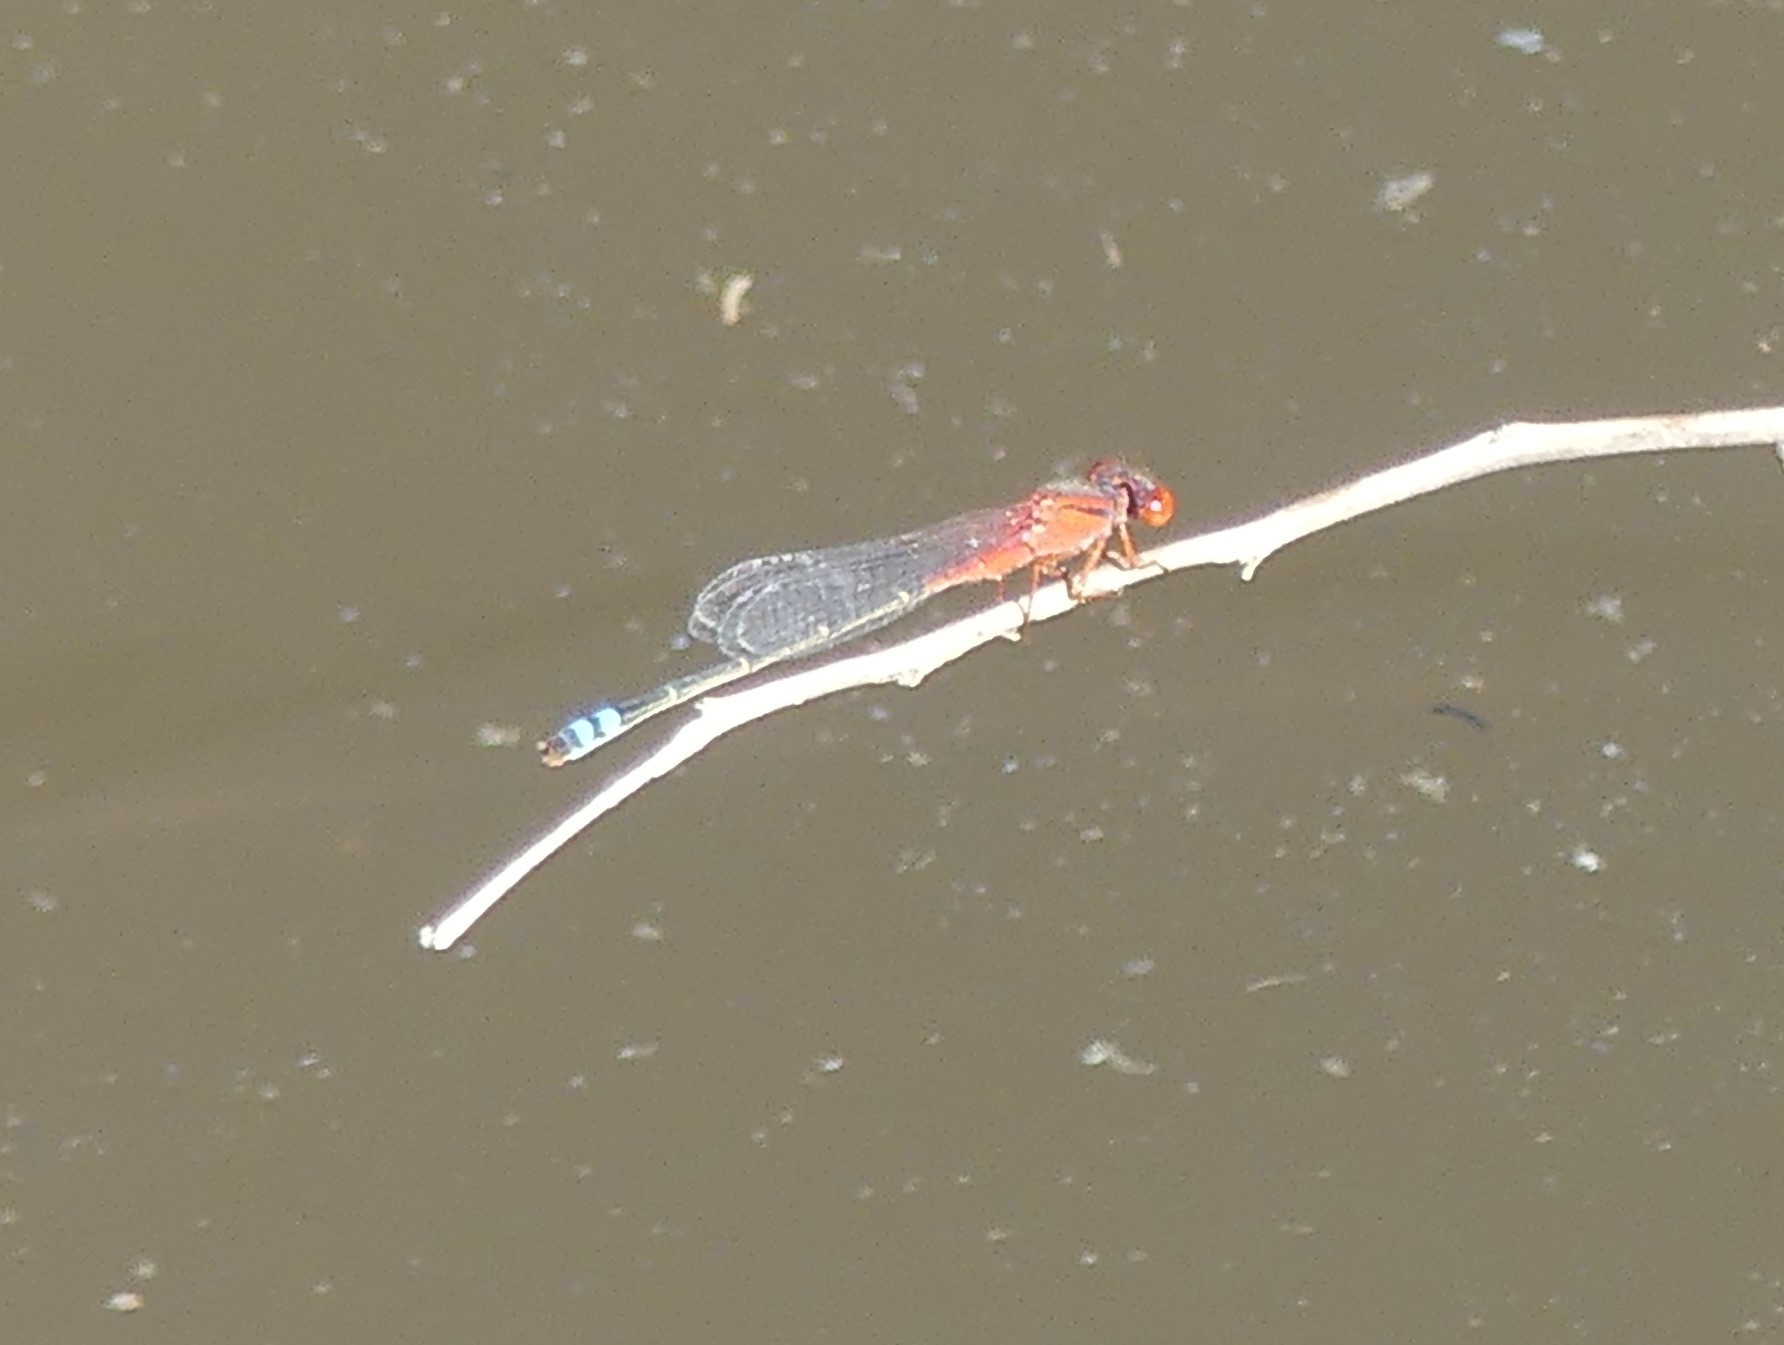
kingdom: Animalia
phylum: Arthropoda
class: Insecta
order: Odonata
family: Coenagrionidae
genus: Xanthagrion
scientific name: Xanthagrion erythroneurum
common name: Red and blue damsel
